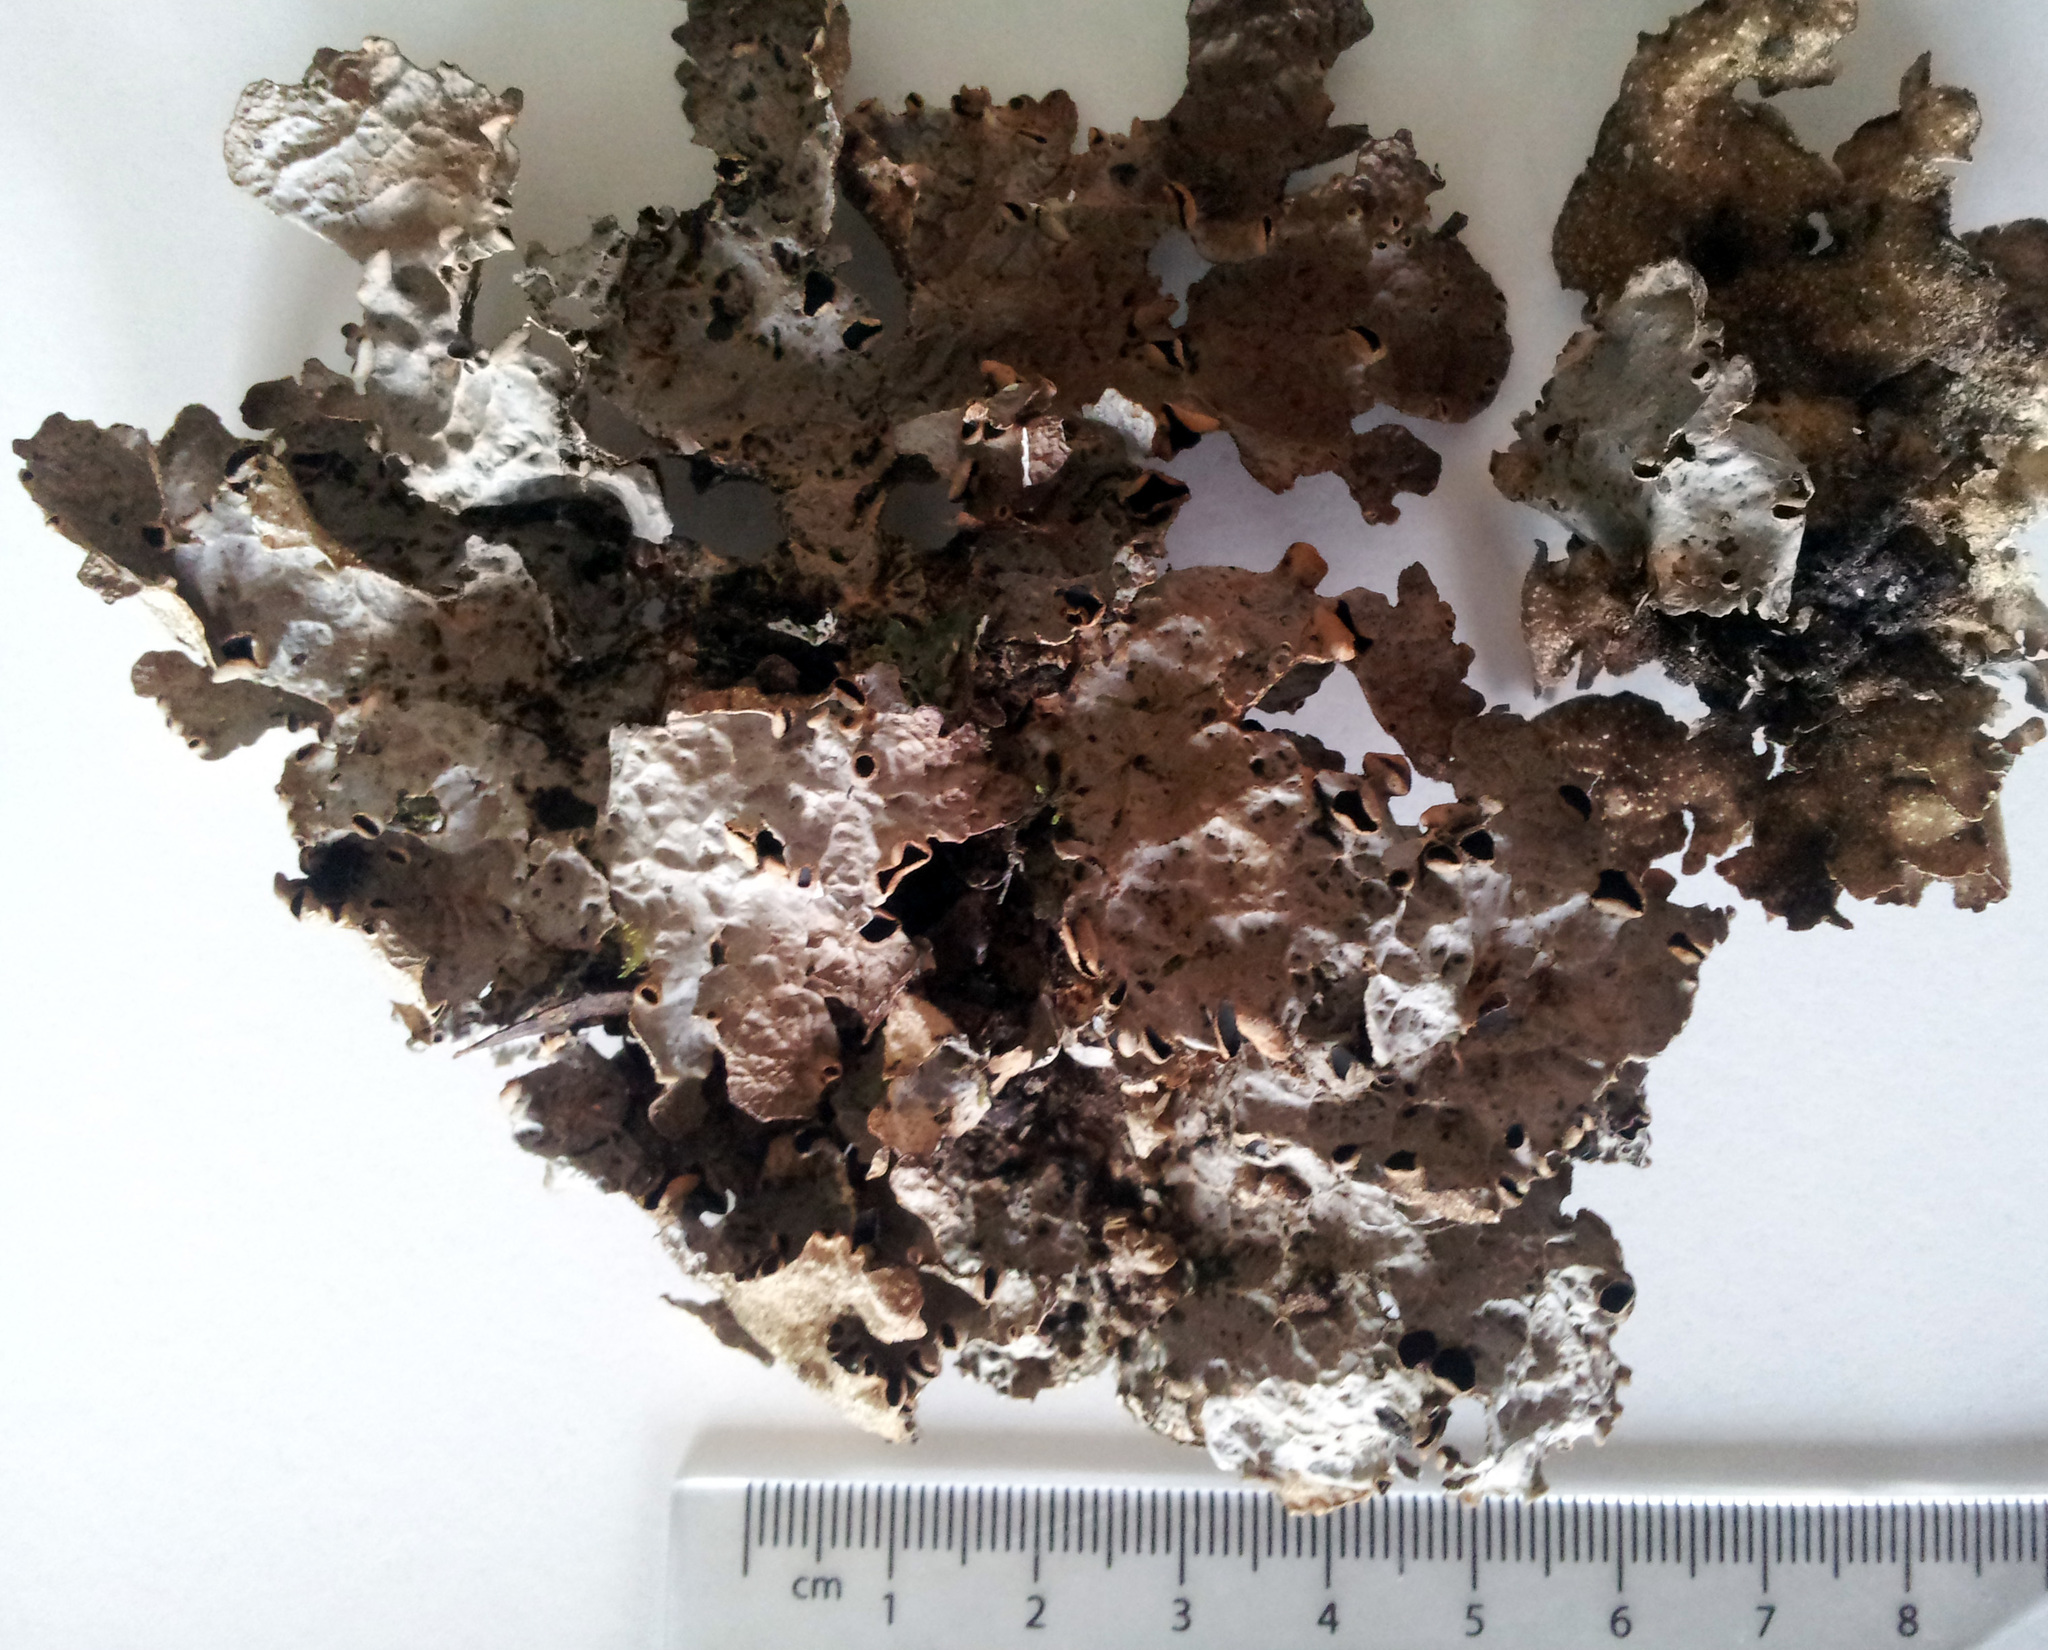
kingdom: Fungi
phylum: Ascomycota
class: Lecanoromycetes
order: Peltigerales
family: Lobariaceae
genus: Pseudocyphellaria
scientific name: Pseudocyphellaria hookeri
